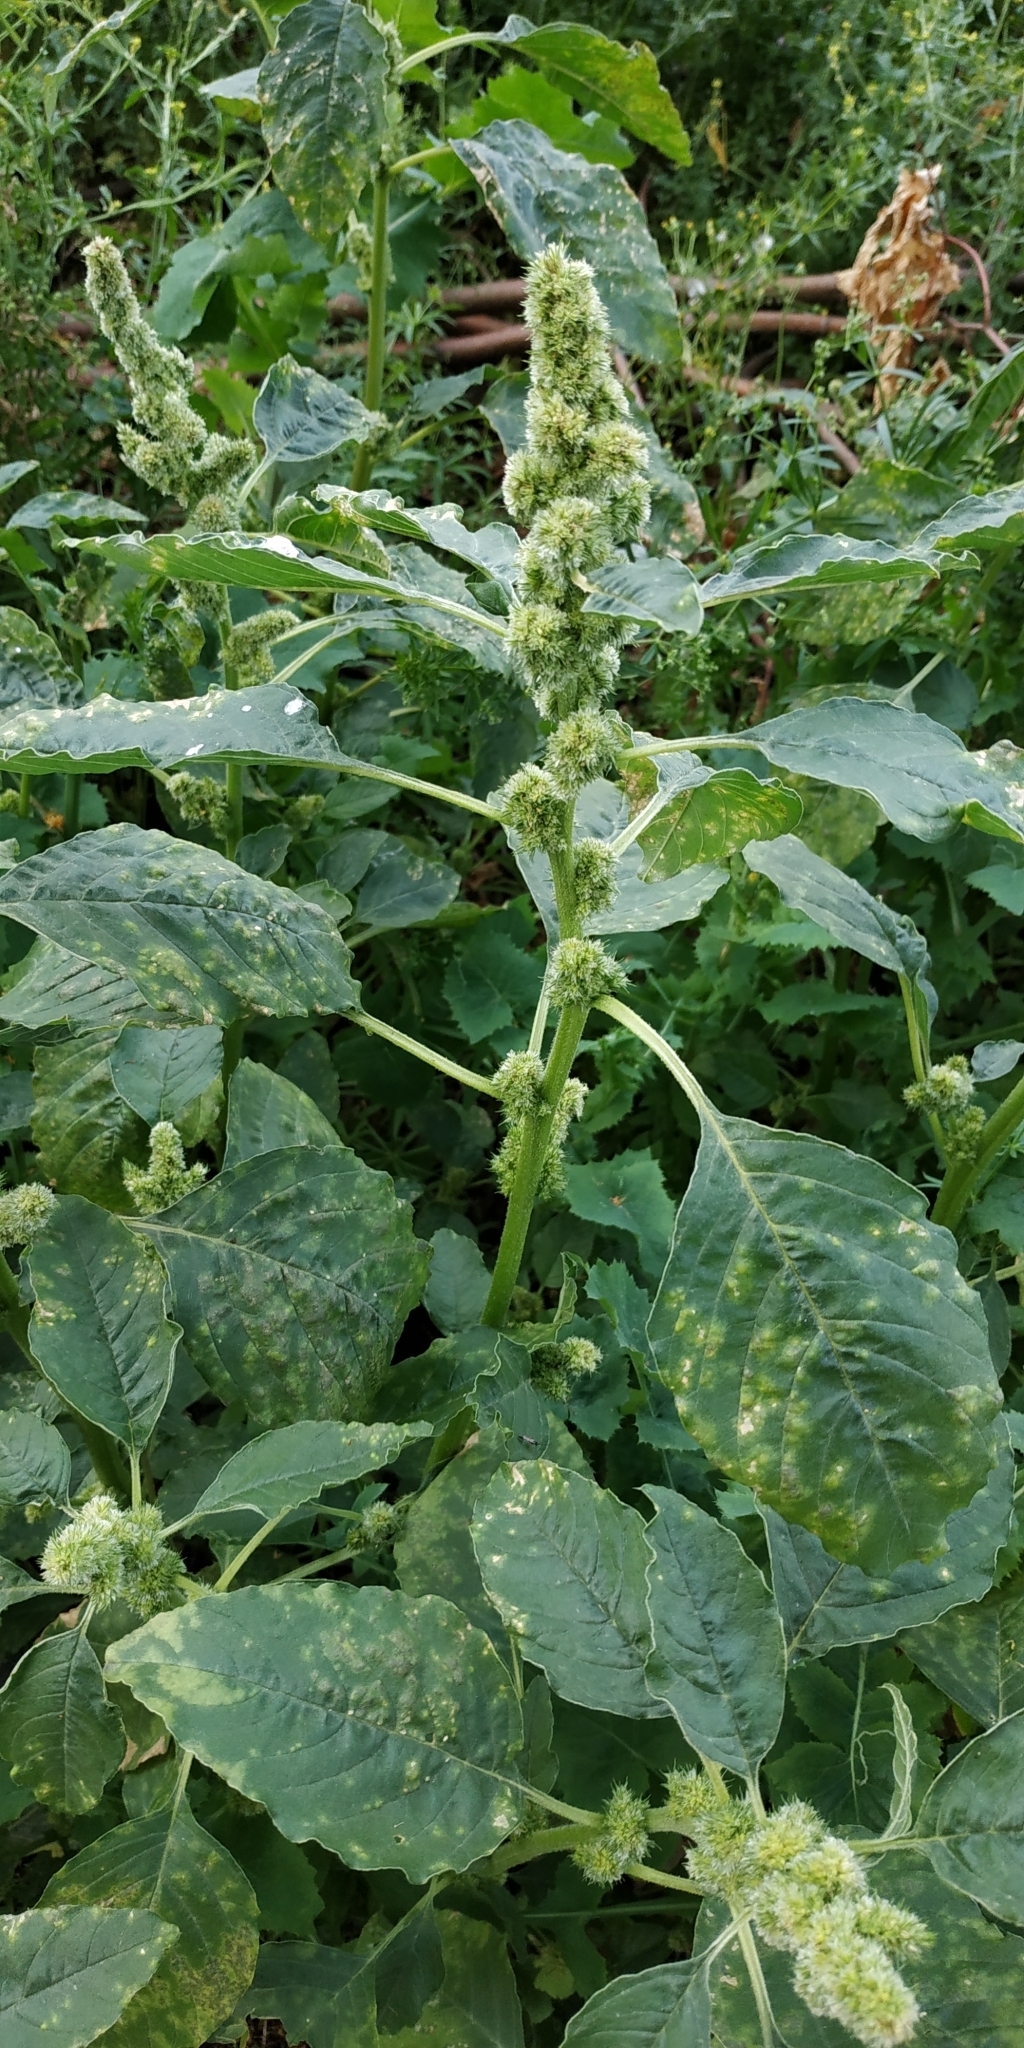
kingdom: Plantae
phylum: Tracheophyta
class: Magnoliopsida
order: Caryophyllales
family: Amaranthaceae
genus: Amaranthus
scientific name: Amaranthus retroflexus
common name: Redroot amaranth
